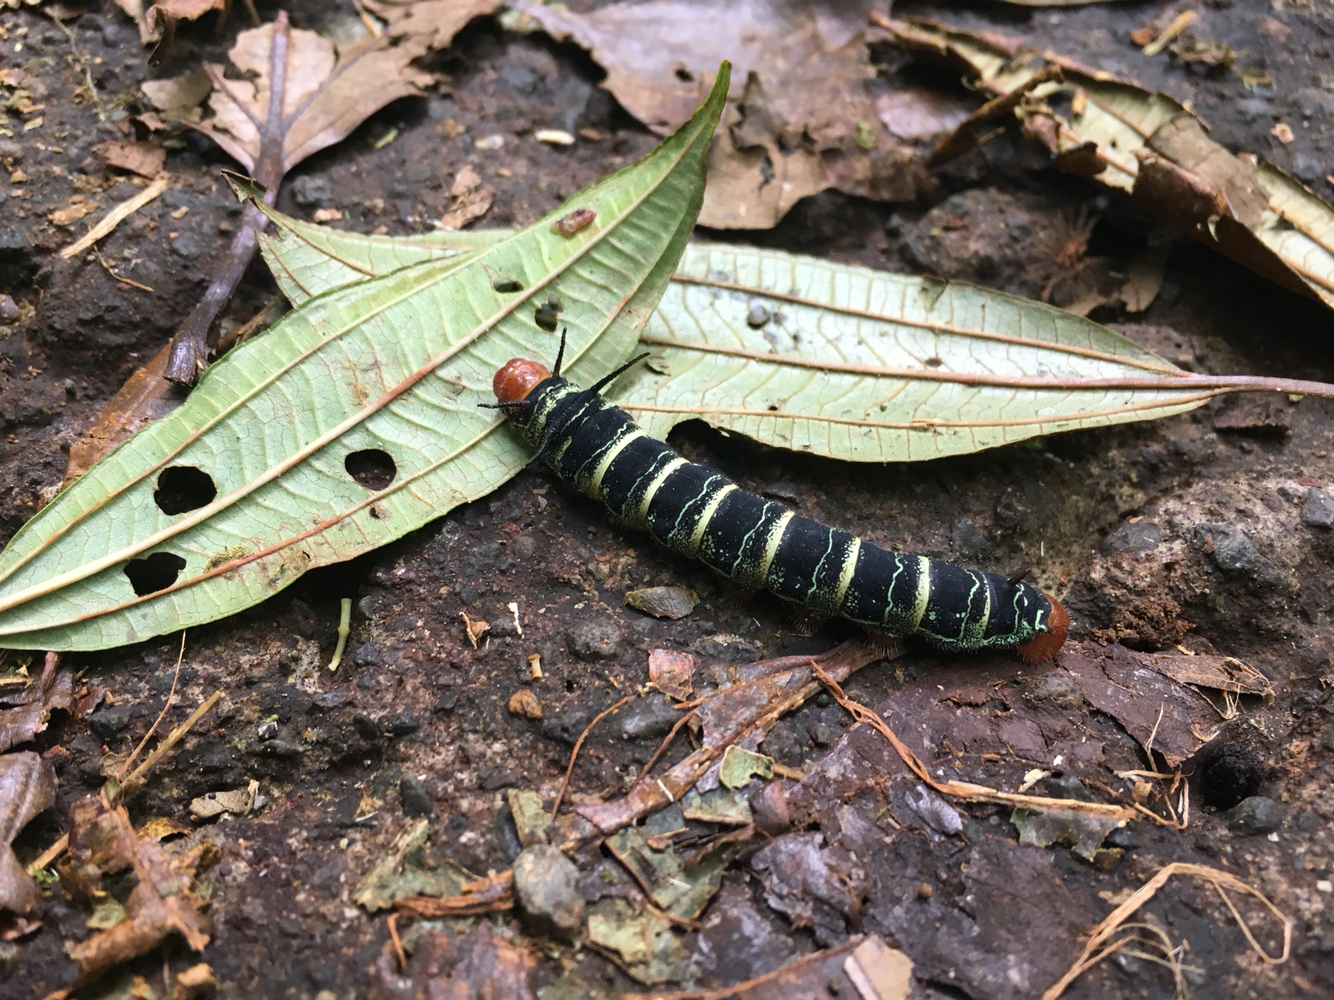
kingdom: Animalia
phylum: Arthropoda
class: Insecta
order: Lepidoptera
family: Saturniidae
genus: Arsenura
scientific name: Arsenura arianae
